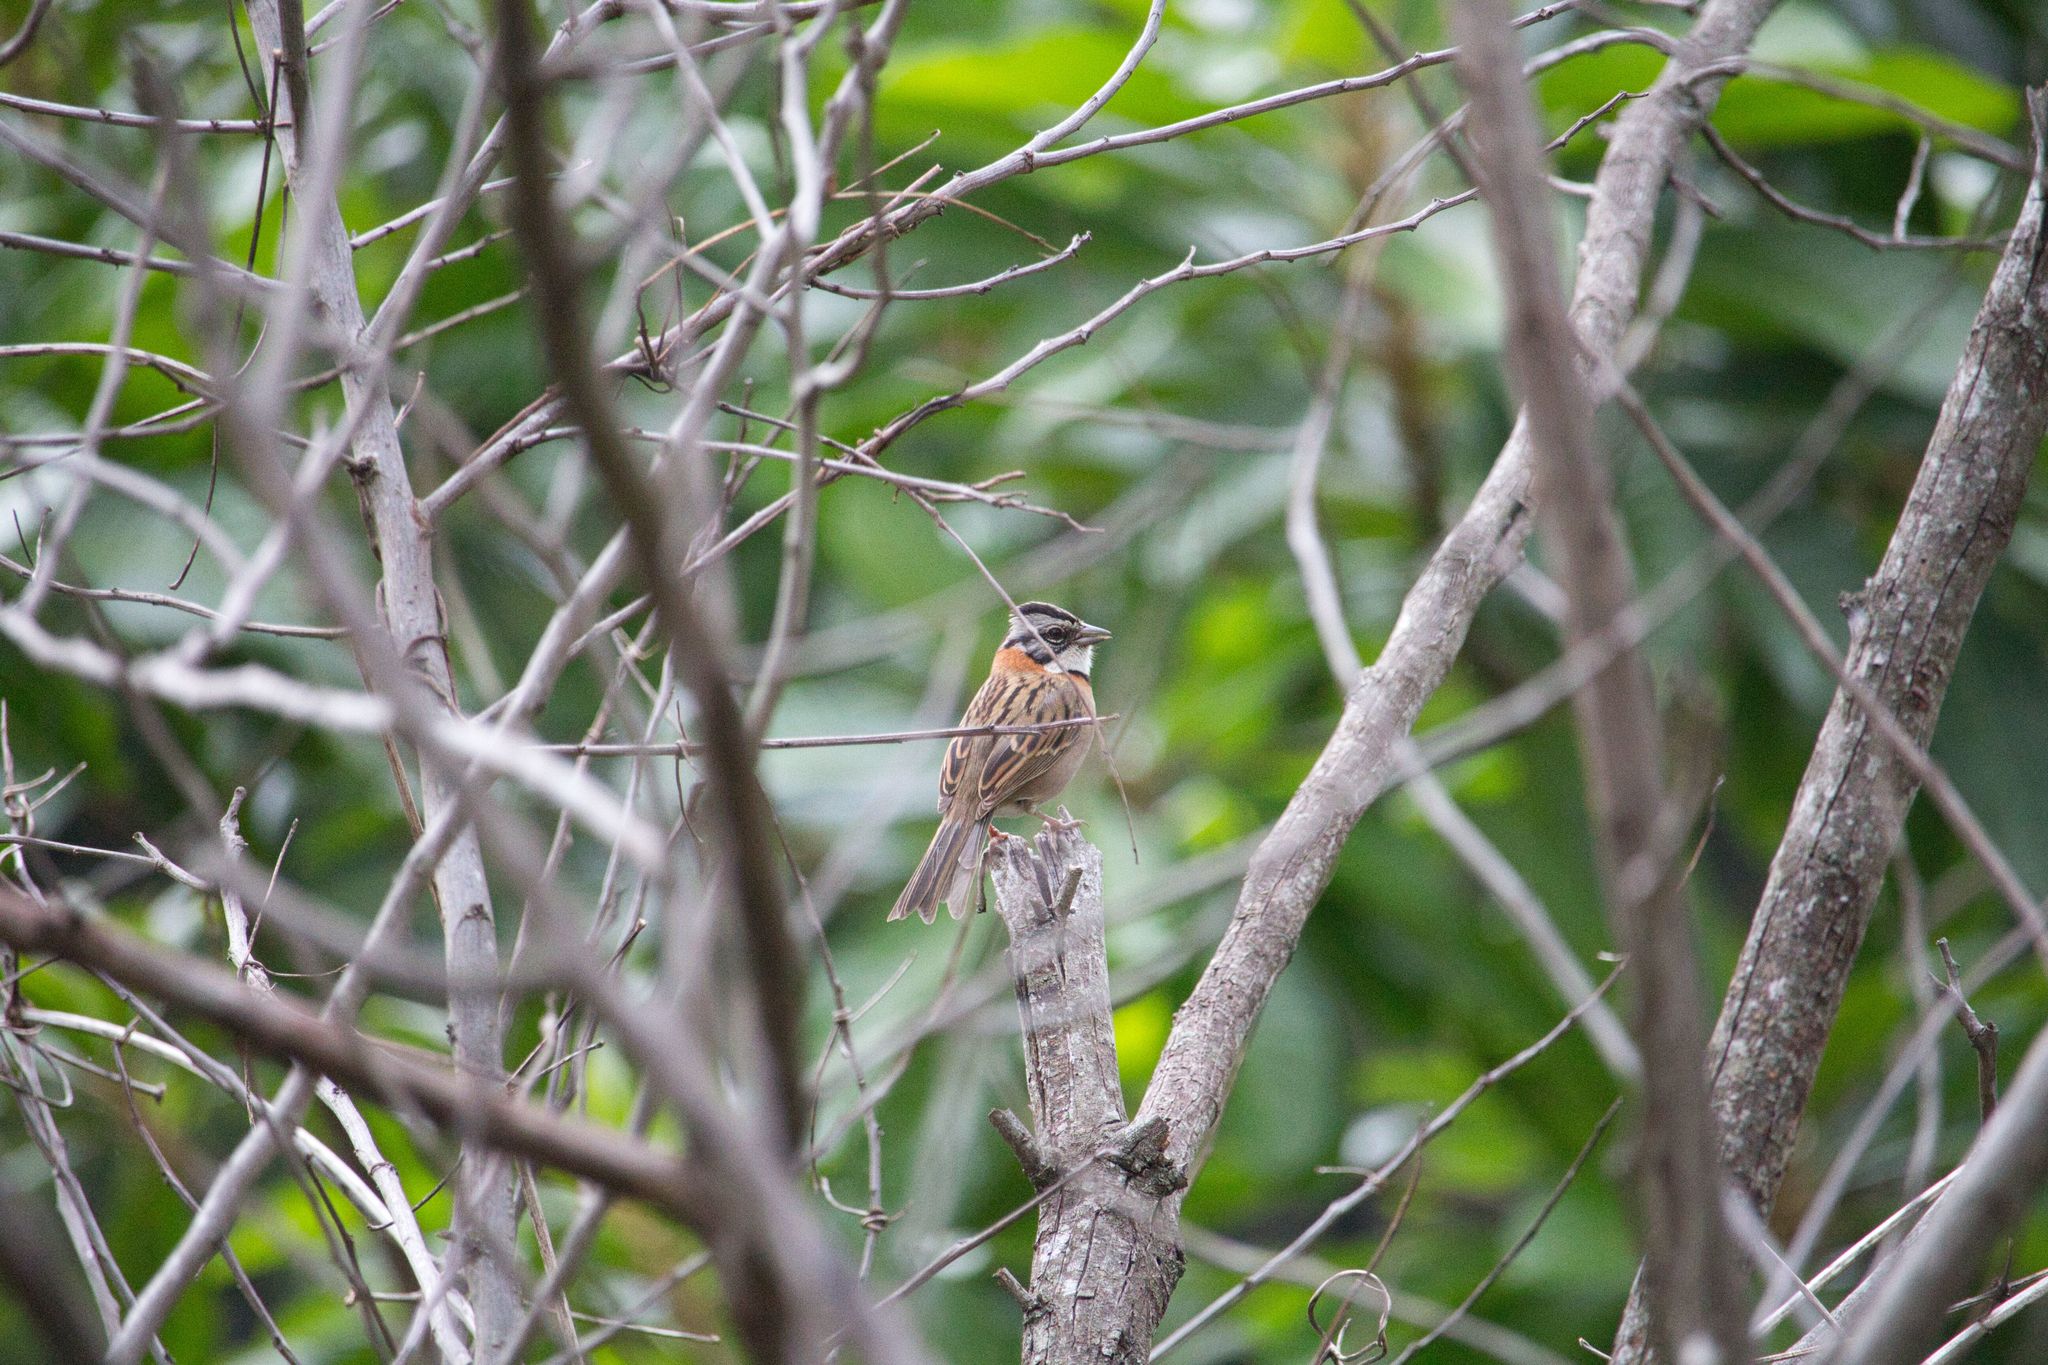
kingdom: Animalia
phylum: Chordata
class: Aves
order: Passeriformes
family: Passerellidae
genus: Zonotrichia
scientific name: Zonotrichia capensis
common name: Rufous-collared sparrow
